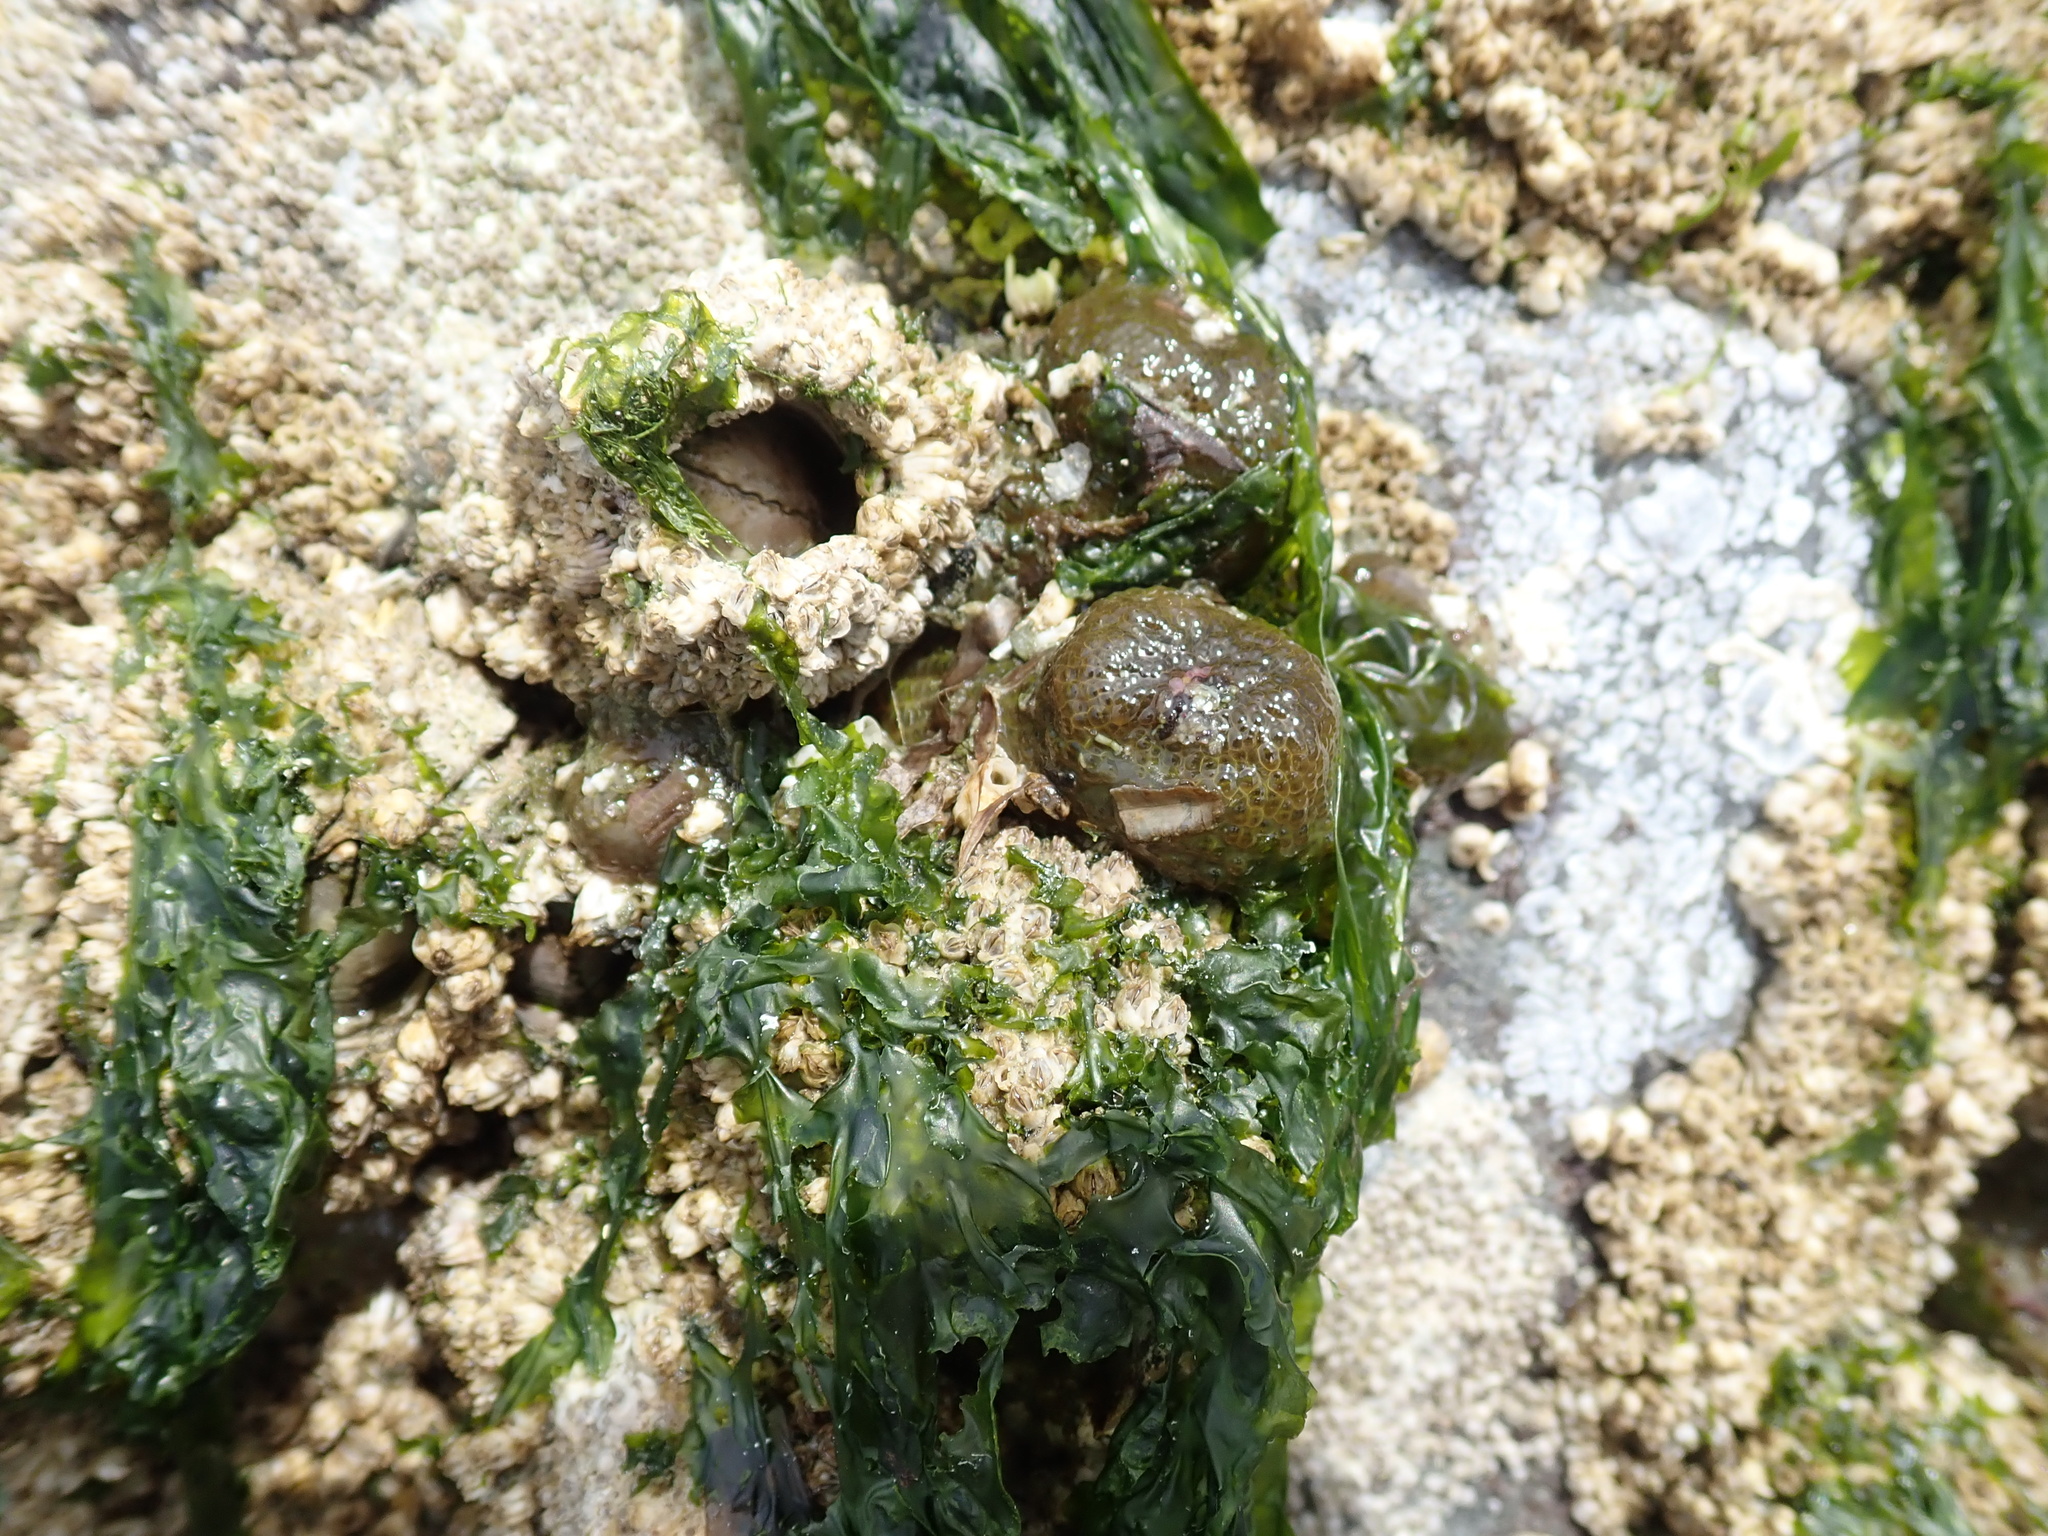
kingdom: Animalia
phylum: Cnidaria
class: Anthozoa
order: Actiniaria
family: Actiniidae
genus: Anthopleura
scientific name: Anthopleura elegantissima
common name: Clonal anemone
